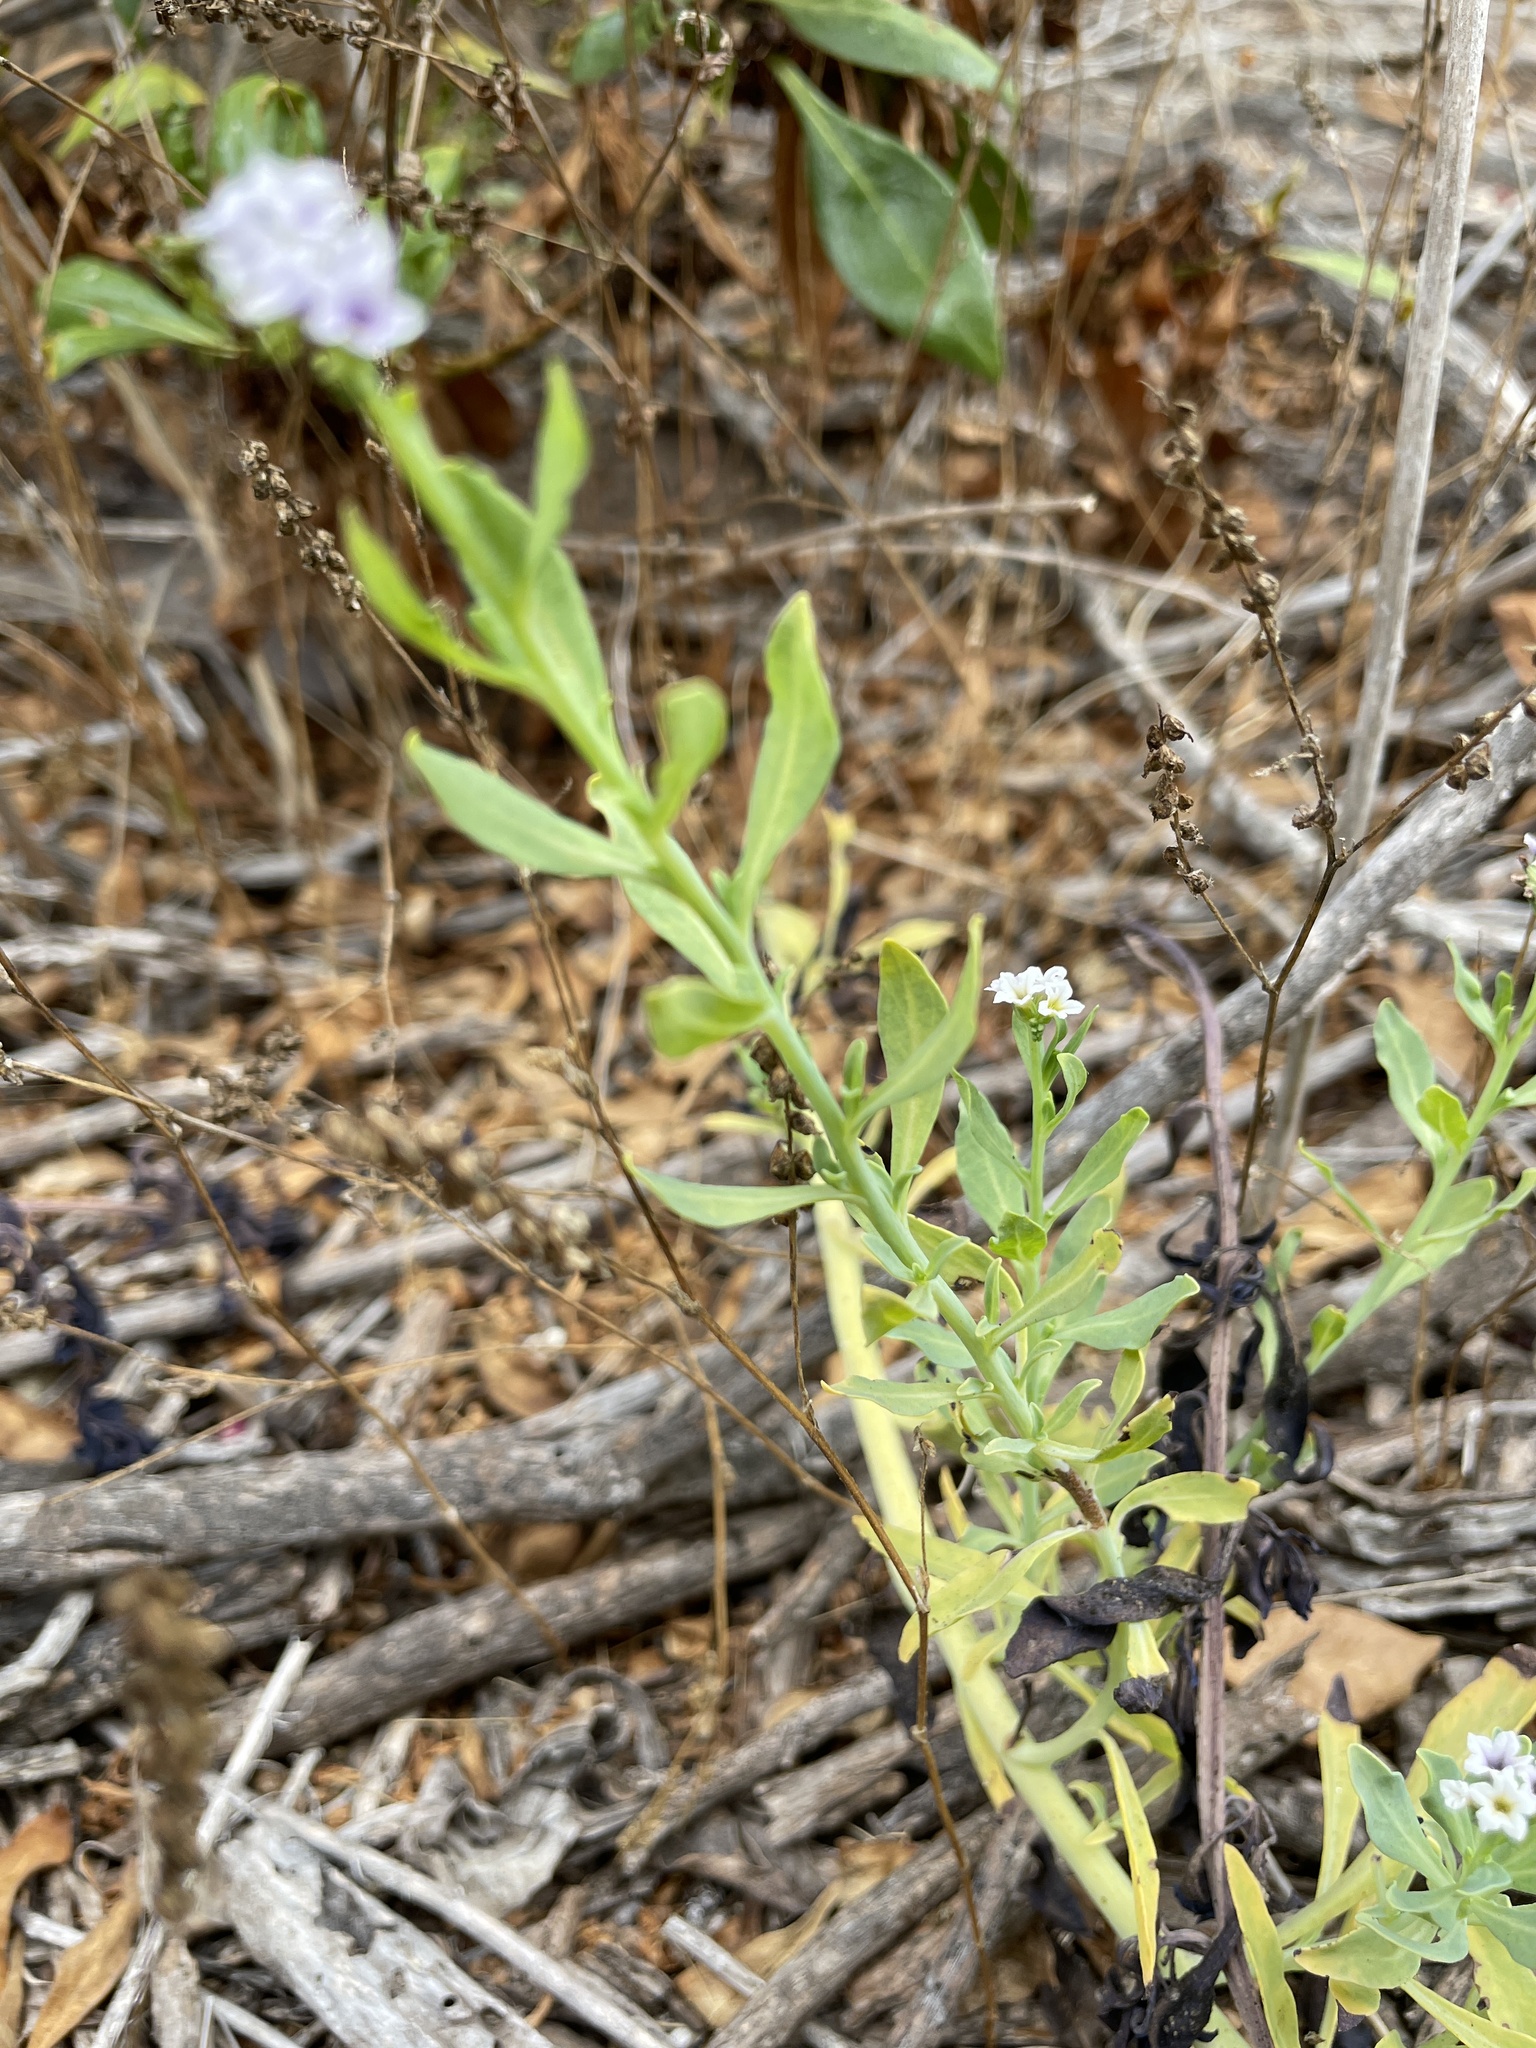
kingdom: Plantae
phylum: Tracheophyta
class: Magnoliopsida
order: Boraginales
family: Heliotropiaceae
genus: Heliotropium
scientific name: Heliotropium curassavicum
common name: Seaside heliotrope
